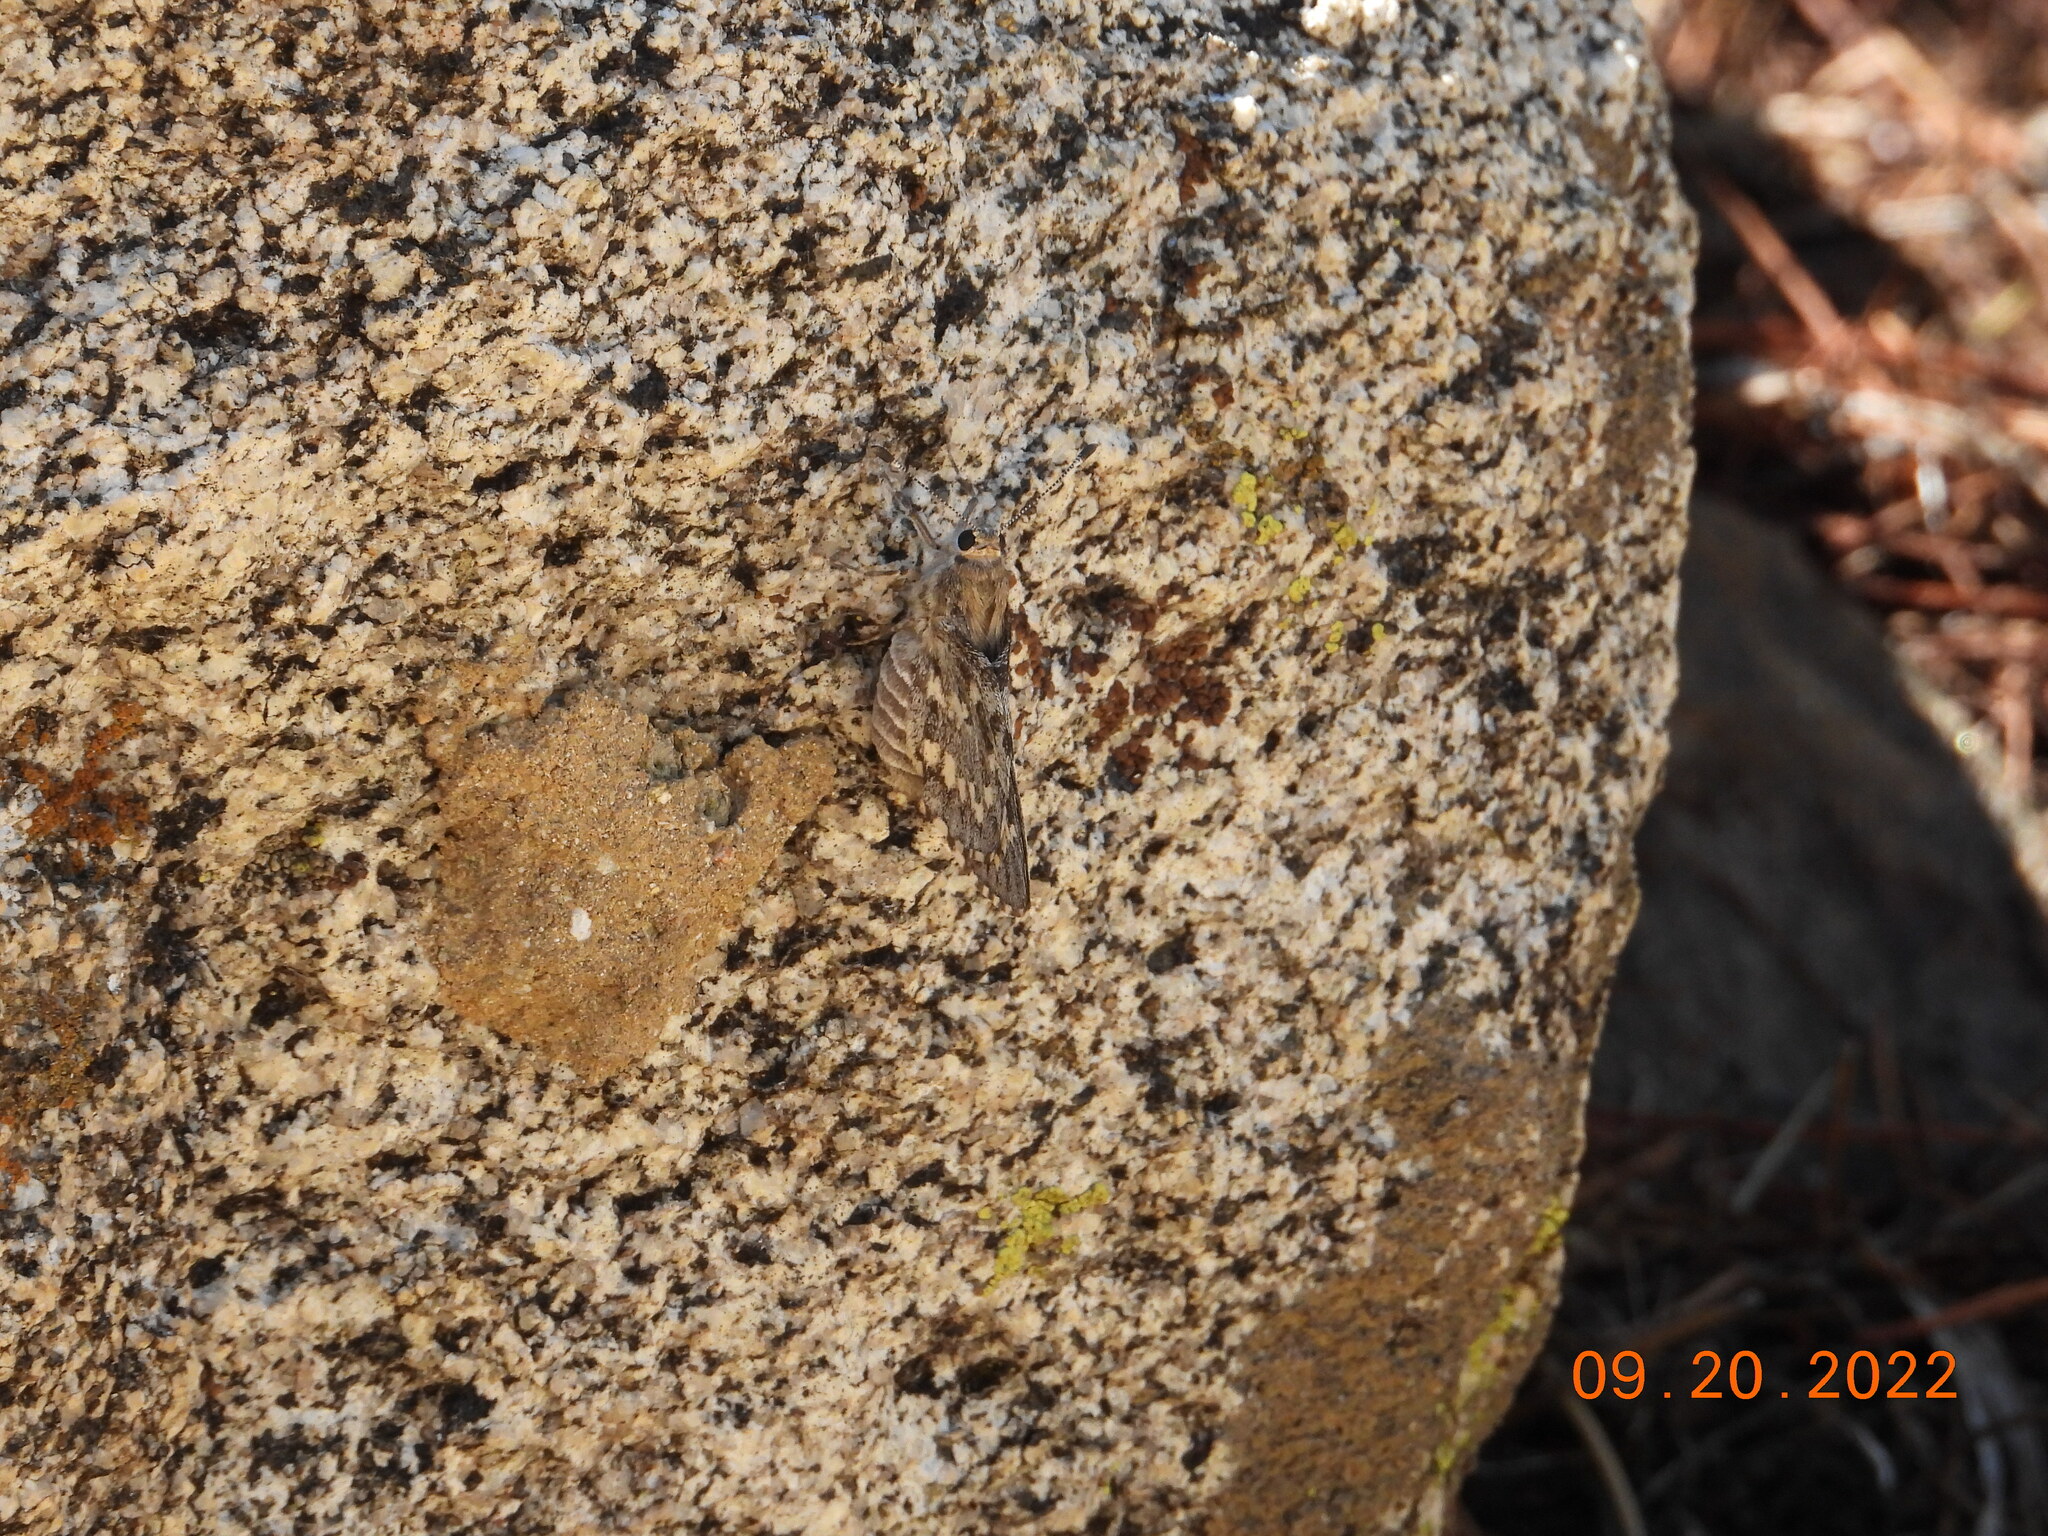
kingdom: Animalia
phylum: Arthropoda
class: Insecta
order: Lepidoptera
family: Hesperiidae
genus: Agathymus
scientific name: Agathymus stephensi
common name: California giant-skipper
